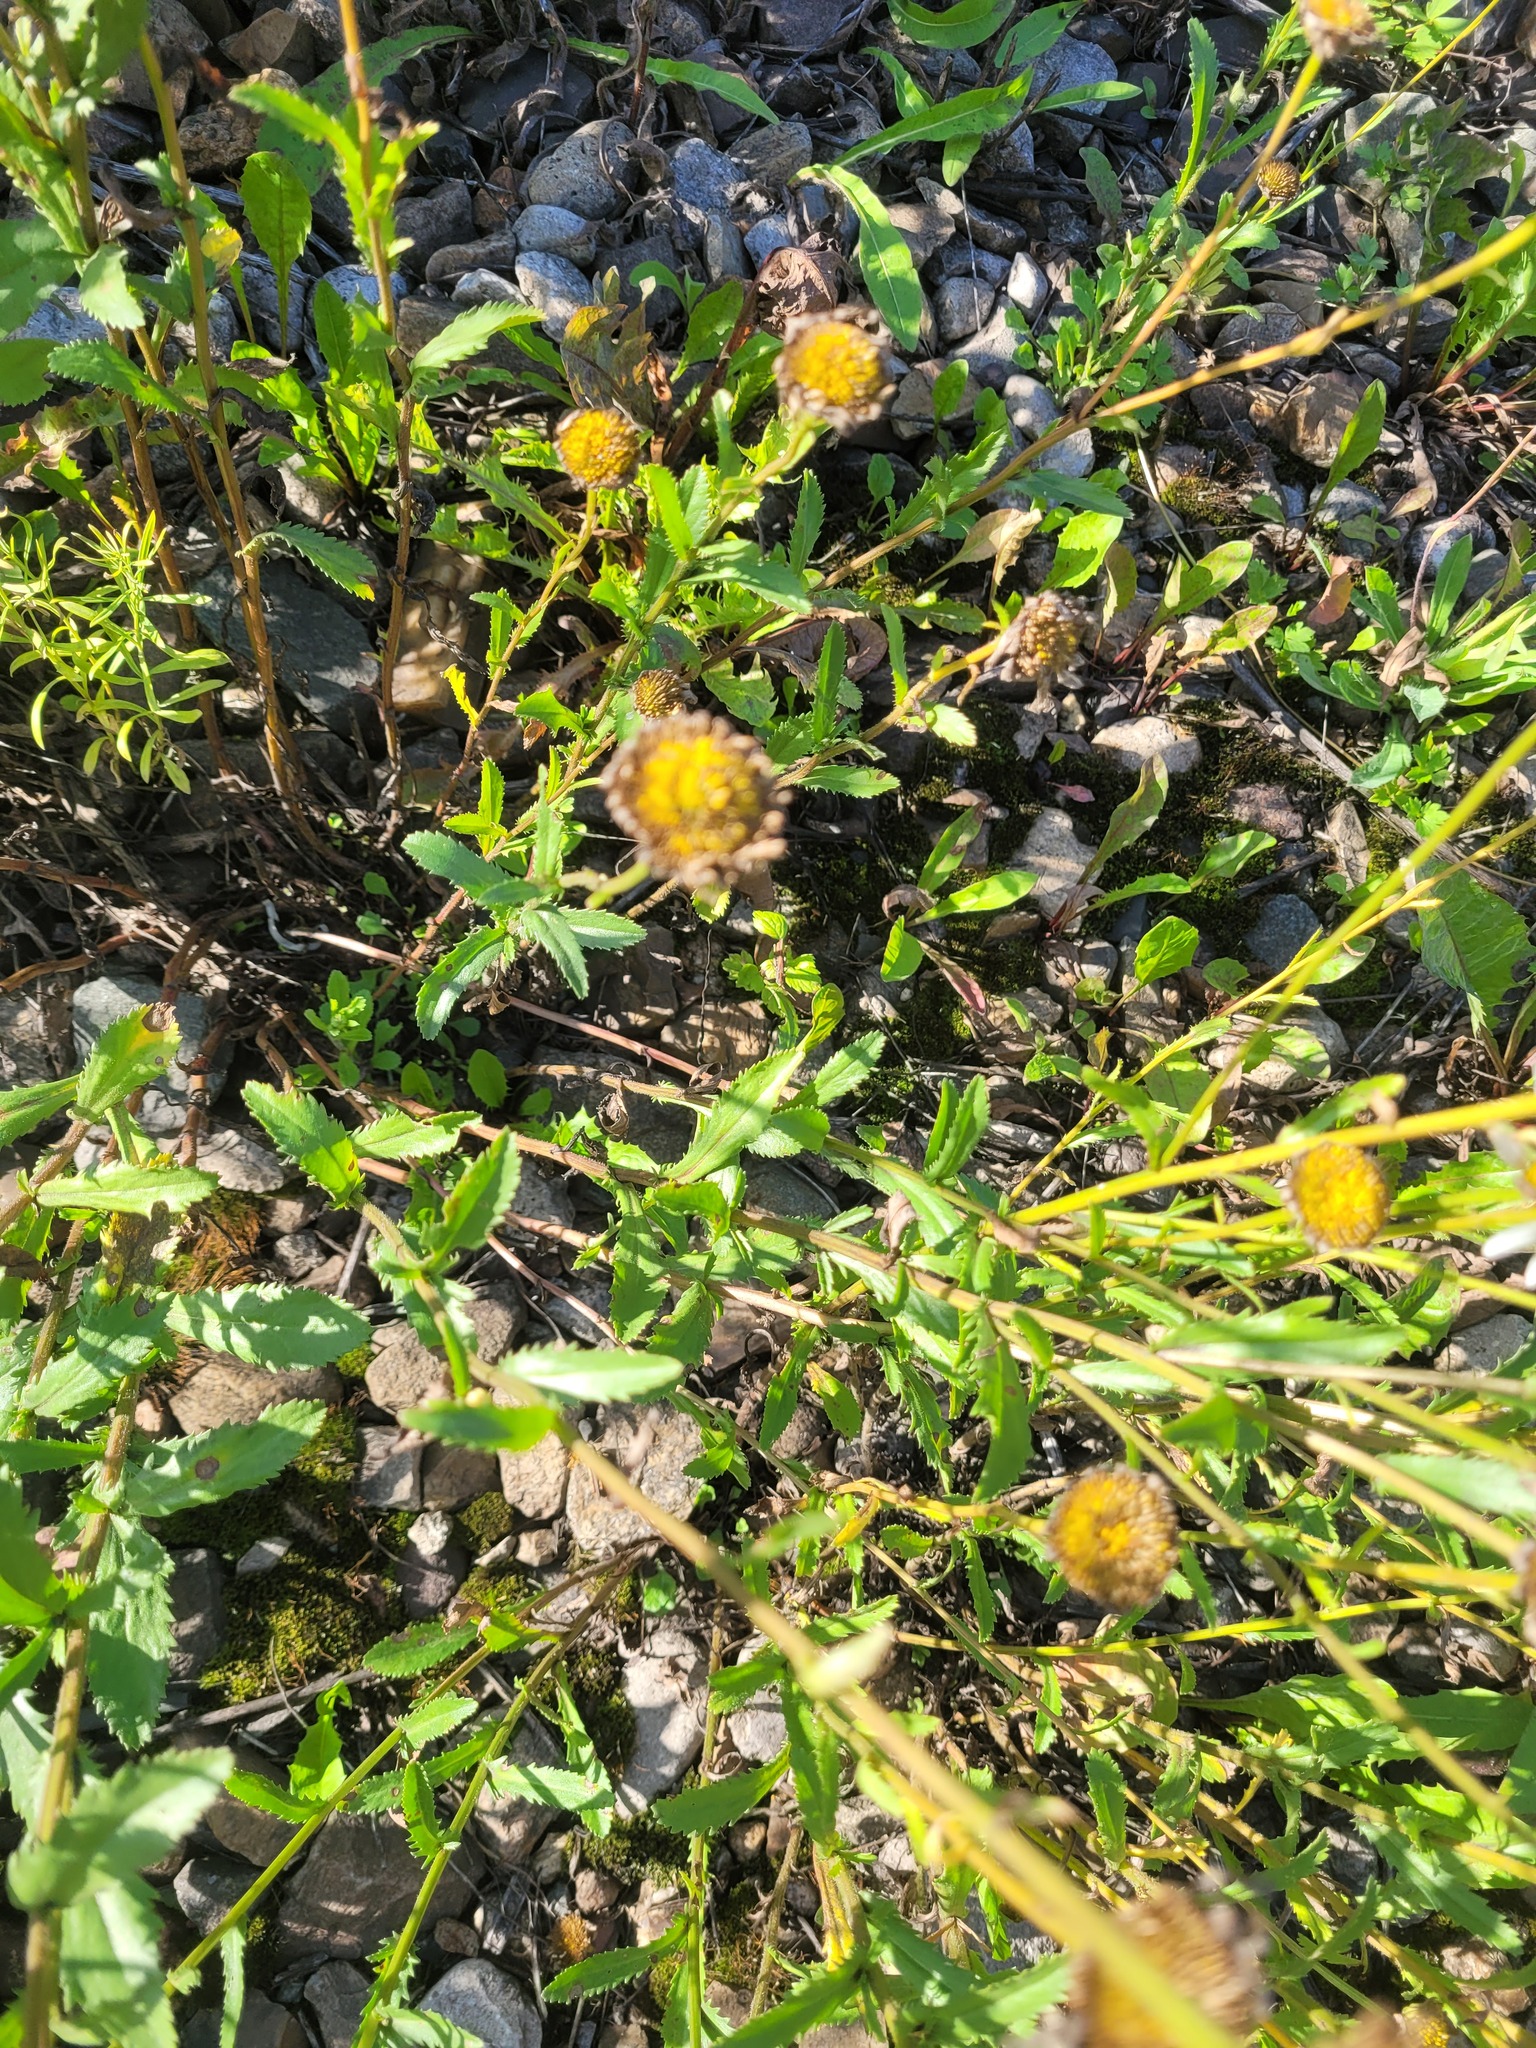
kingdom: Plantae
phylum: Tracheophyta
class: Magnoliopsida
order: Asterales
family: Asteraceae
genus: Leucanthemum
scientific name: Leucanthemum vulgare
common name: Oxeye daisy
